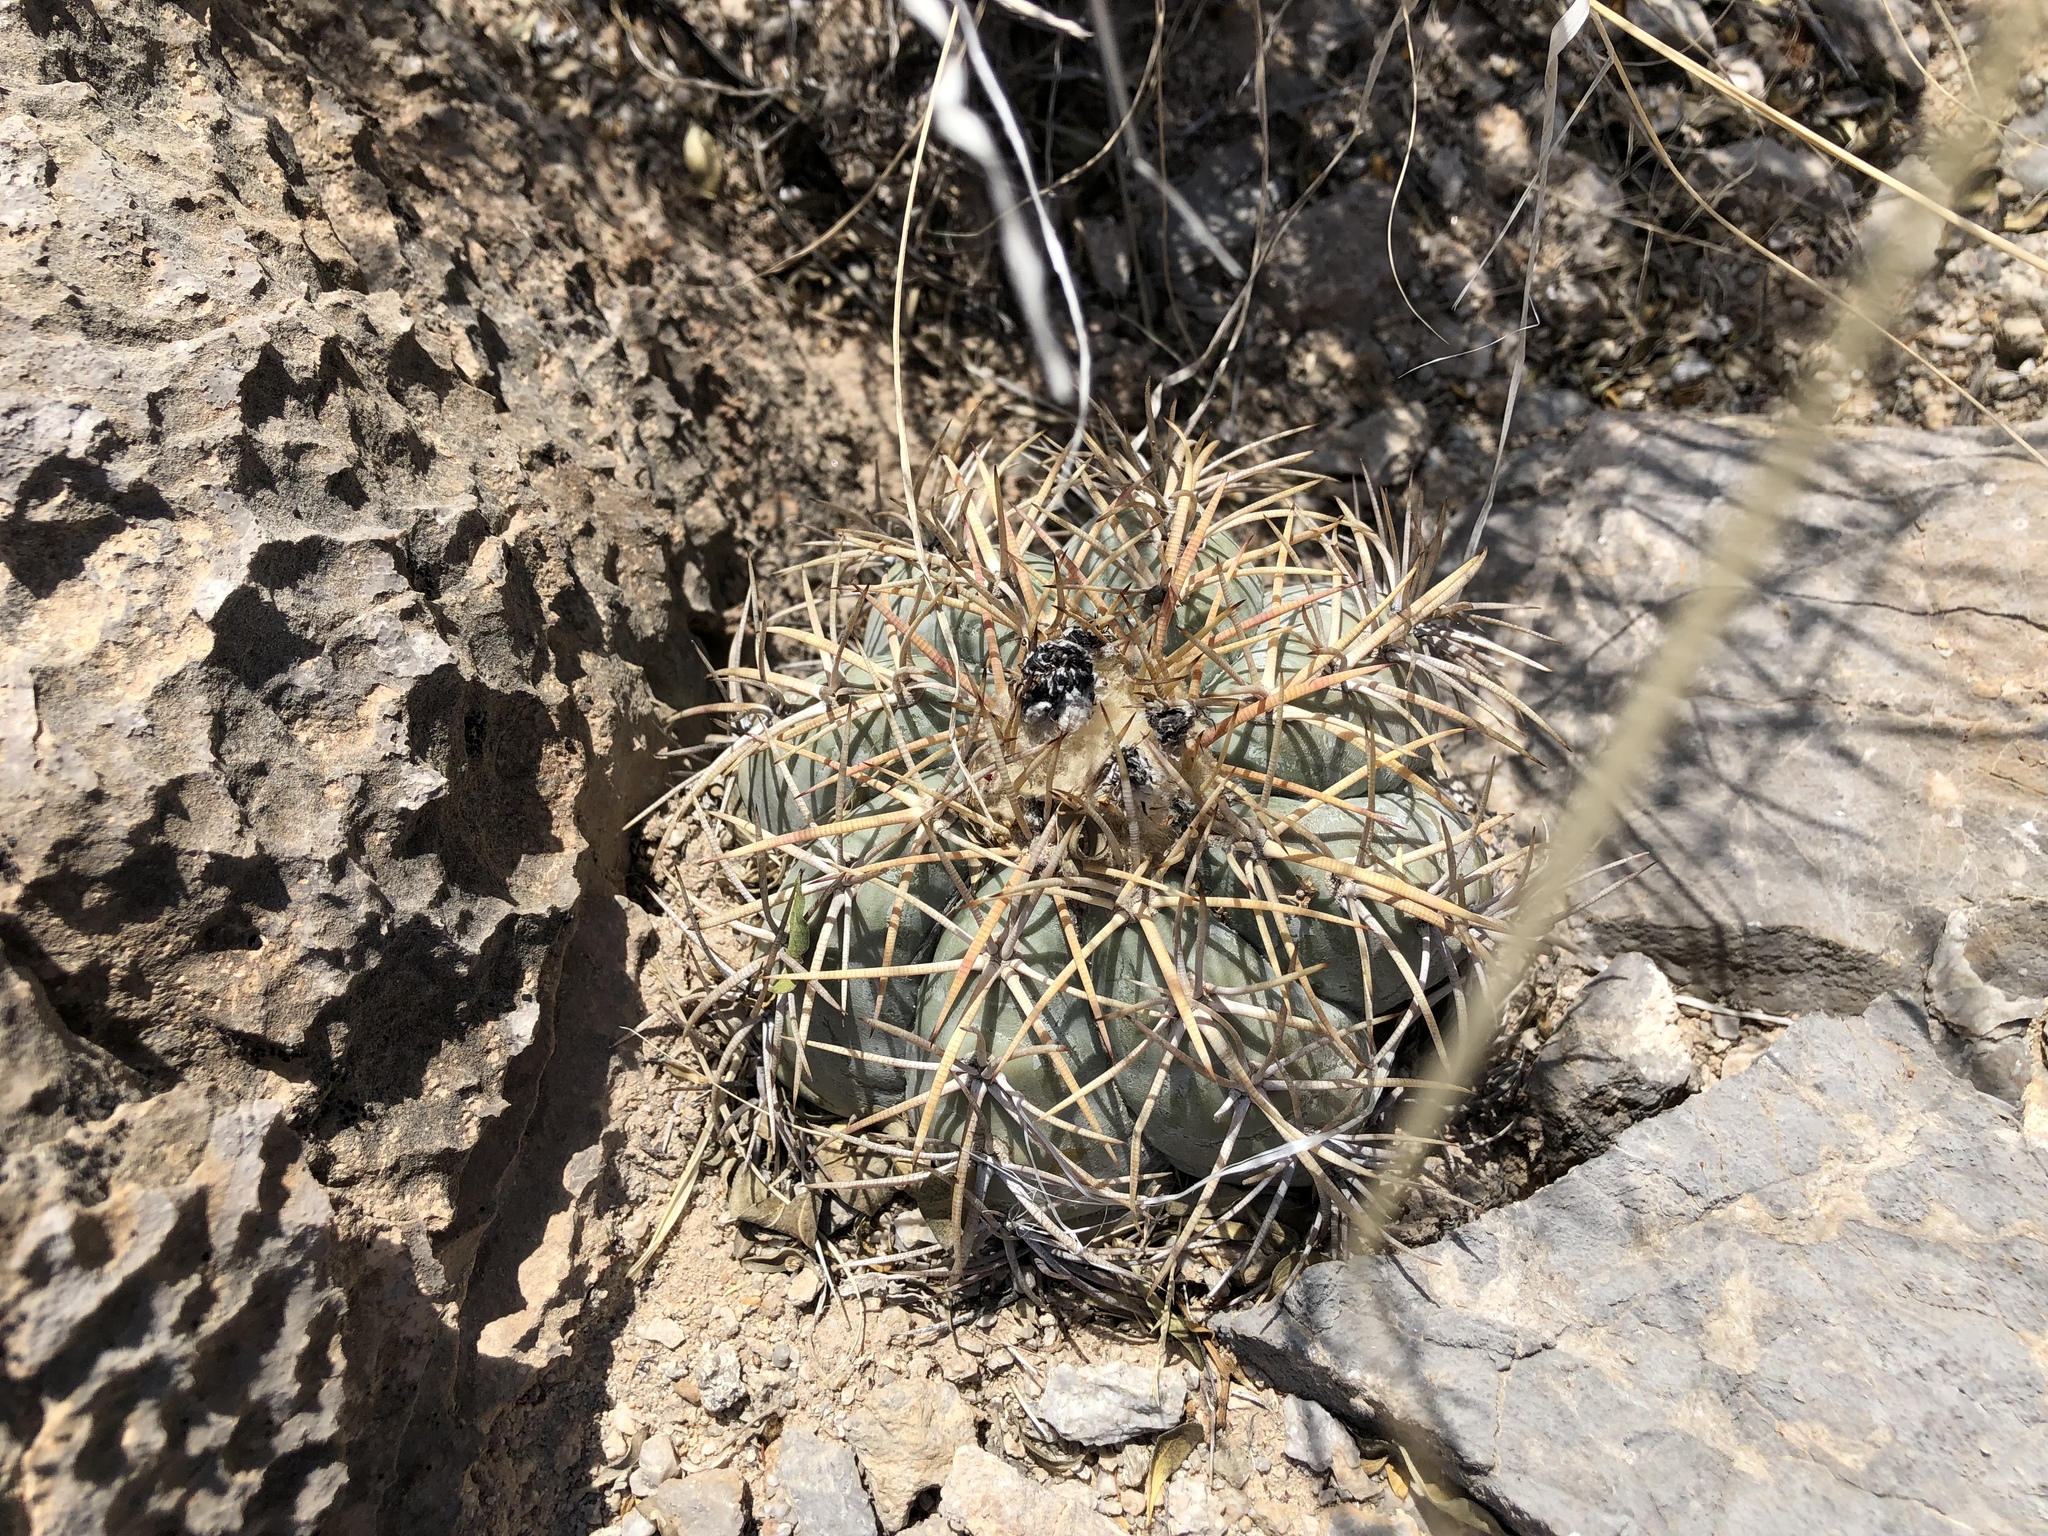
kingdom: Plantae
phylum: Tracheophyta
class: Magnoliopsida
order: Caryophyllales
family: Cactaceae
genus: Echinocactus
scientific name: Echinocactus horizonthalonius
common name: Devilshead
